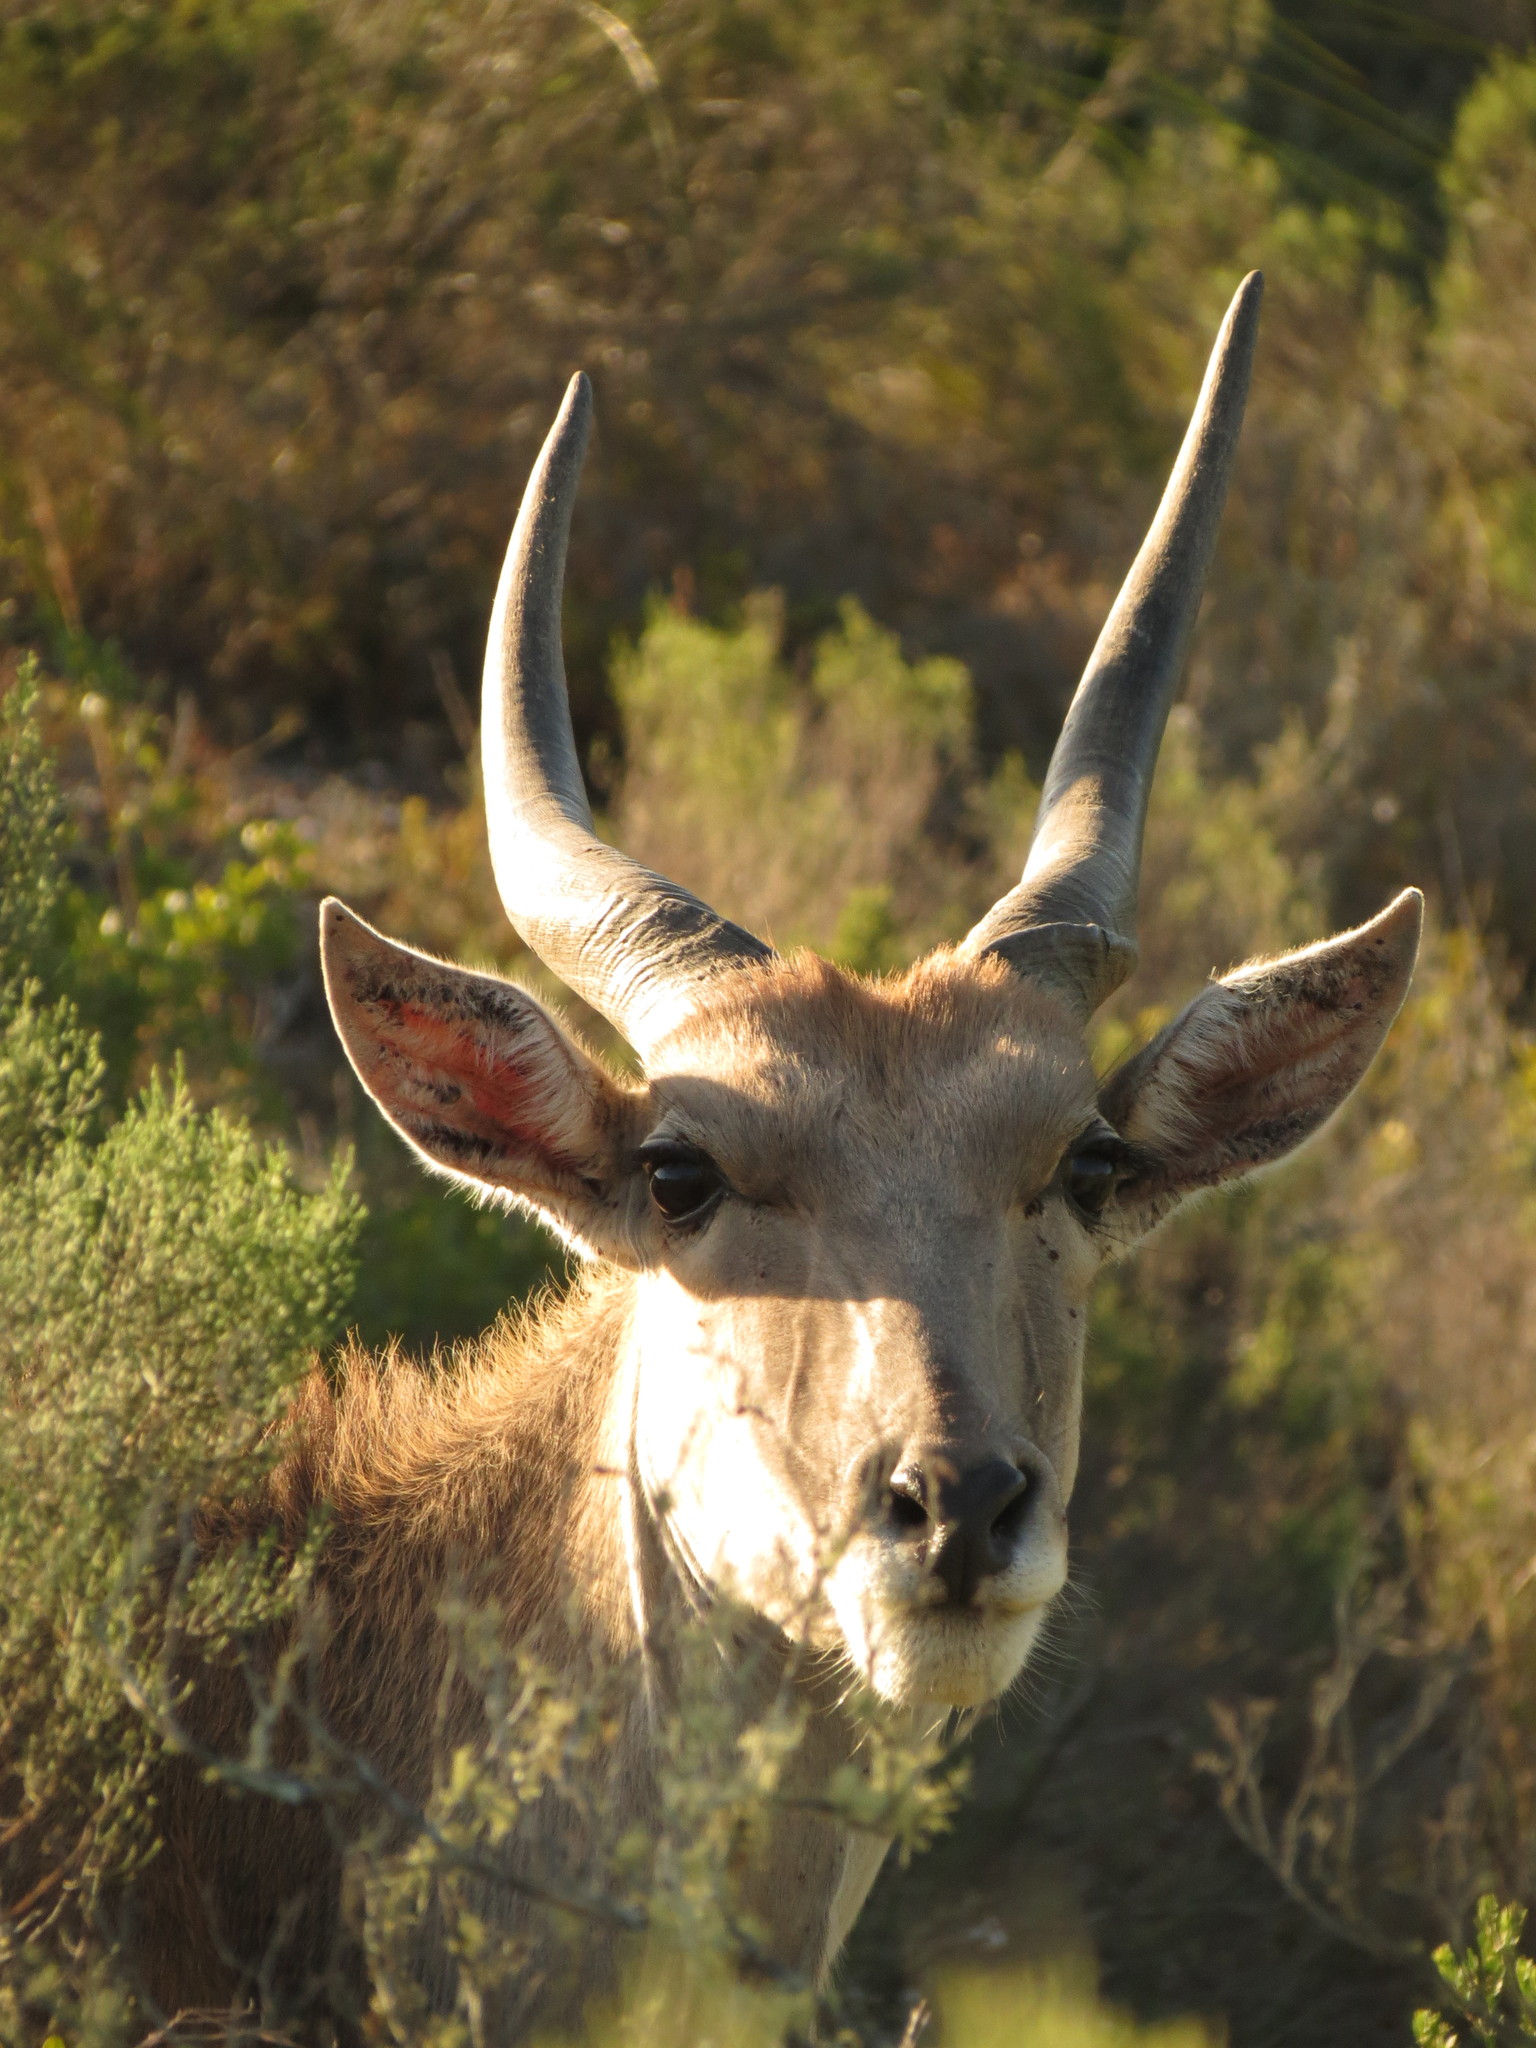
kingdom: Animalia
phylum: Chordata
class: Mammalia
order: Artiodactyla
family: Bovidae
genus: Taurotragus
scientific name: Taurotragus oryx
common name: Common eland
